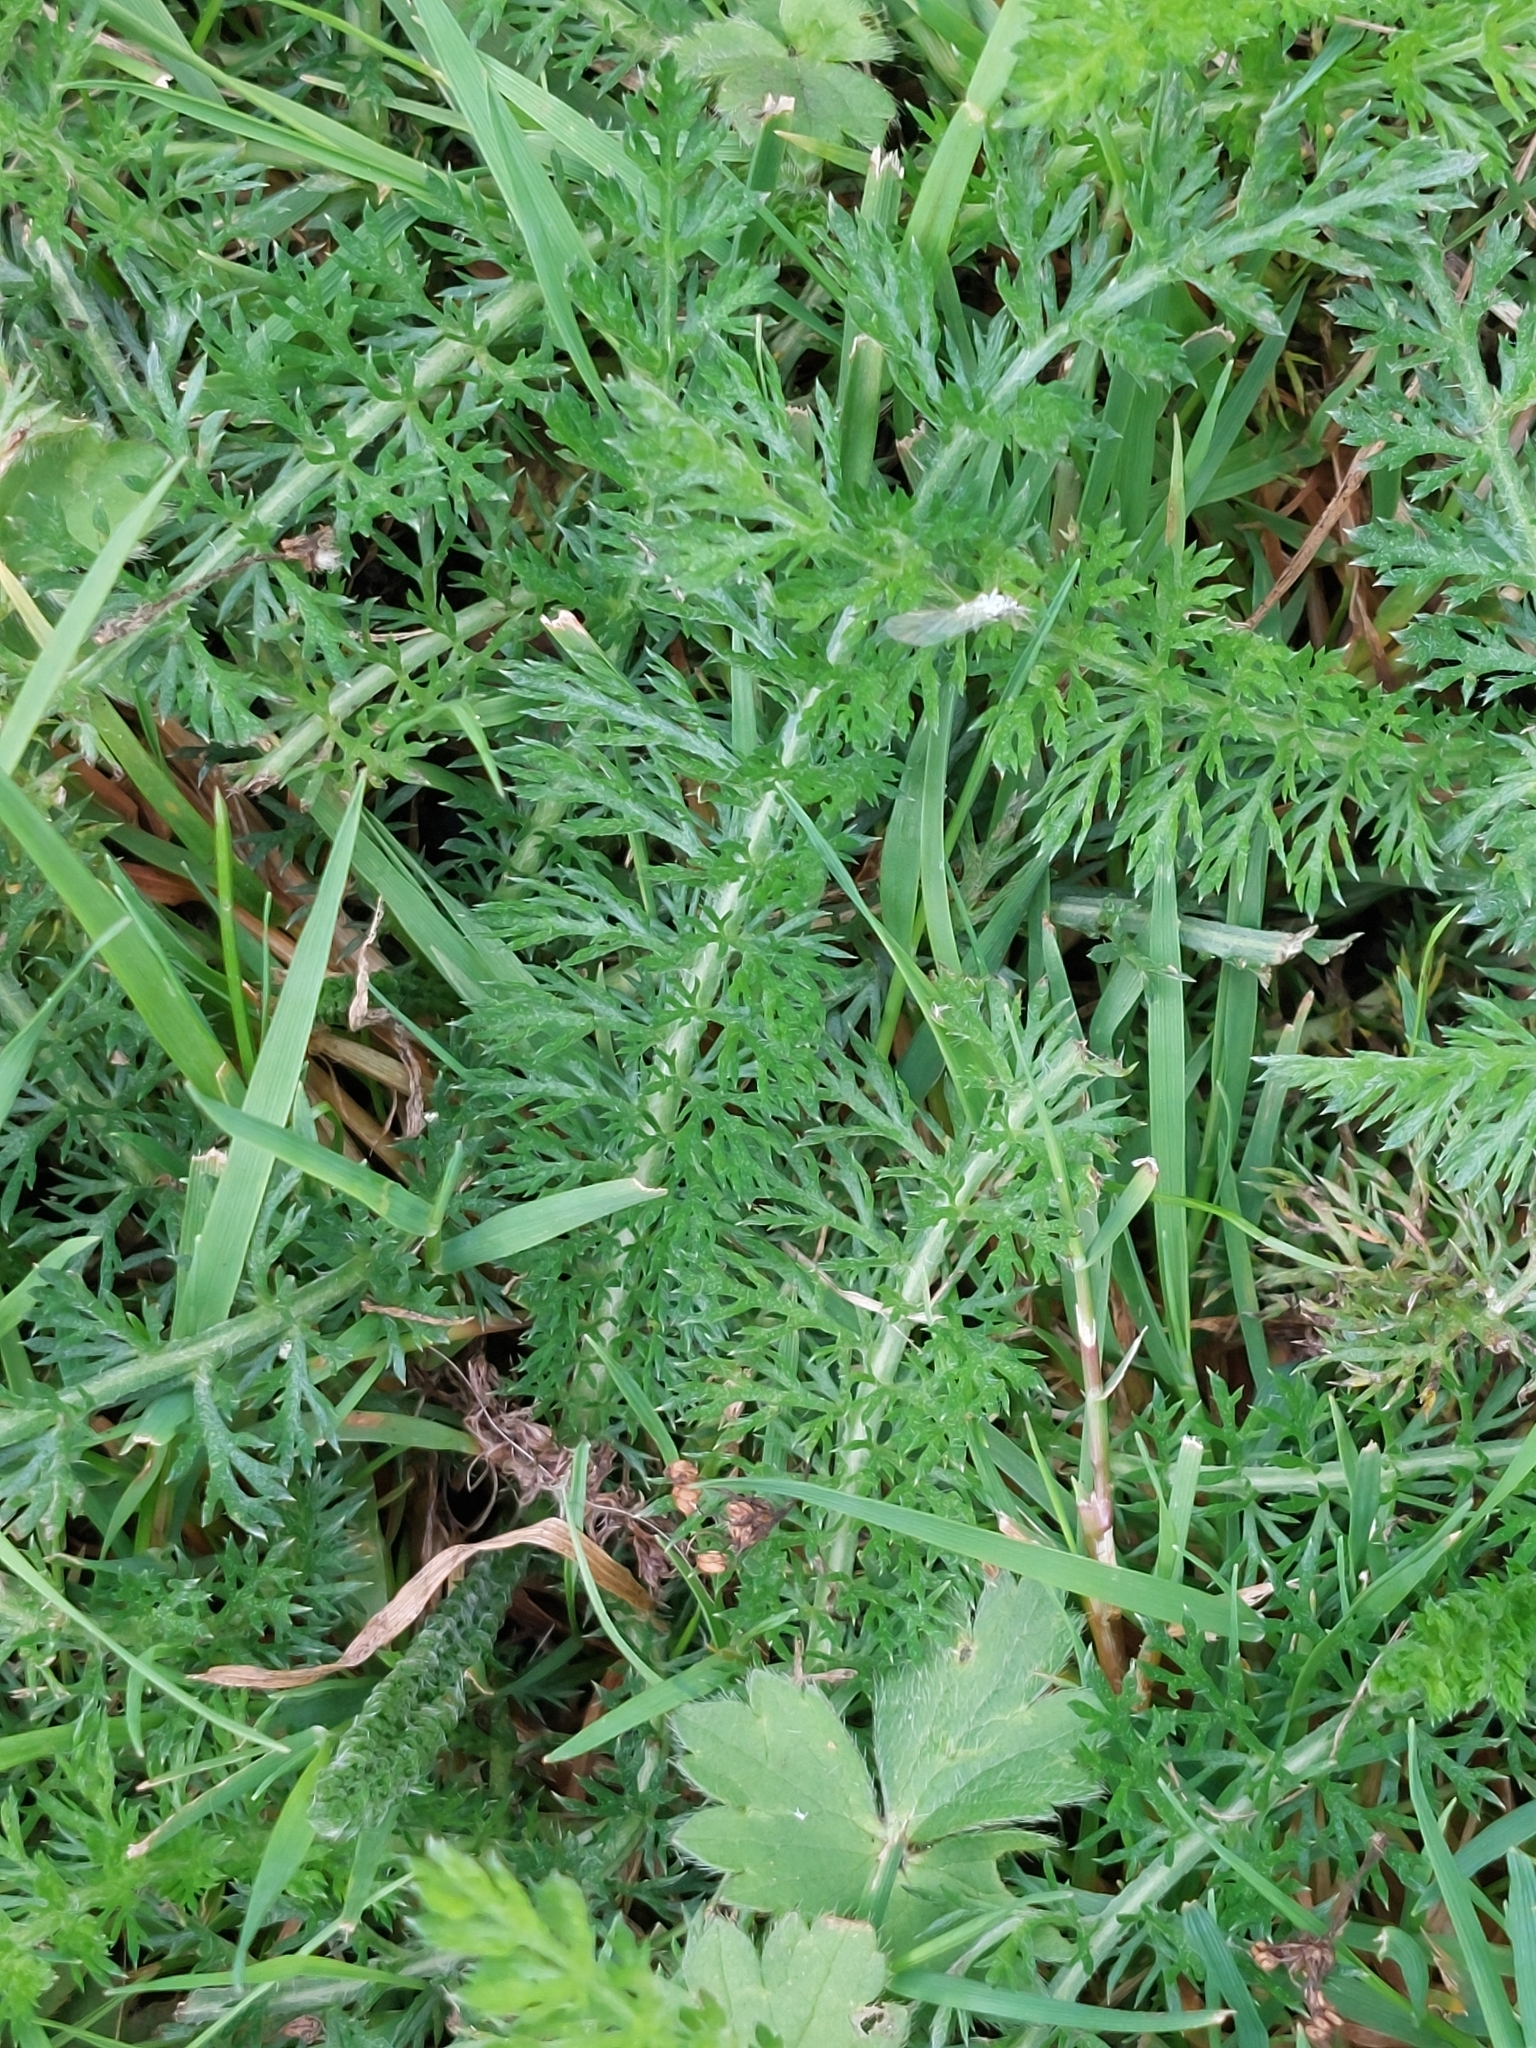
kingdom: Plantae
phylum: Tracheophyta
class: Magnoliopsida
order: Asterales
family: Asteraceae
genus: Achillea
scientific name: Achillea millefolium
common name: Yarrow
